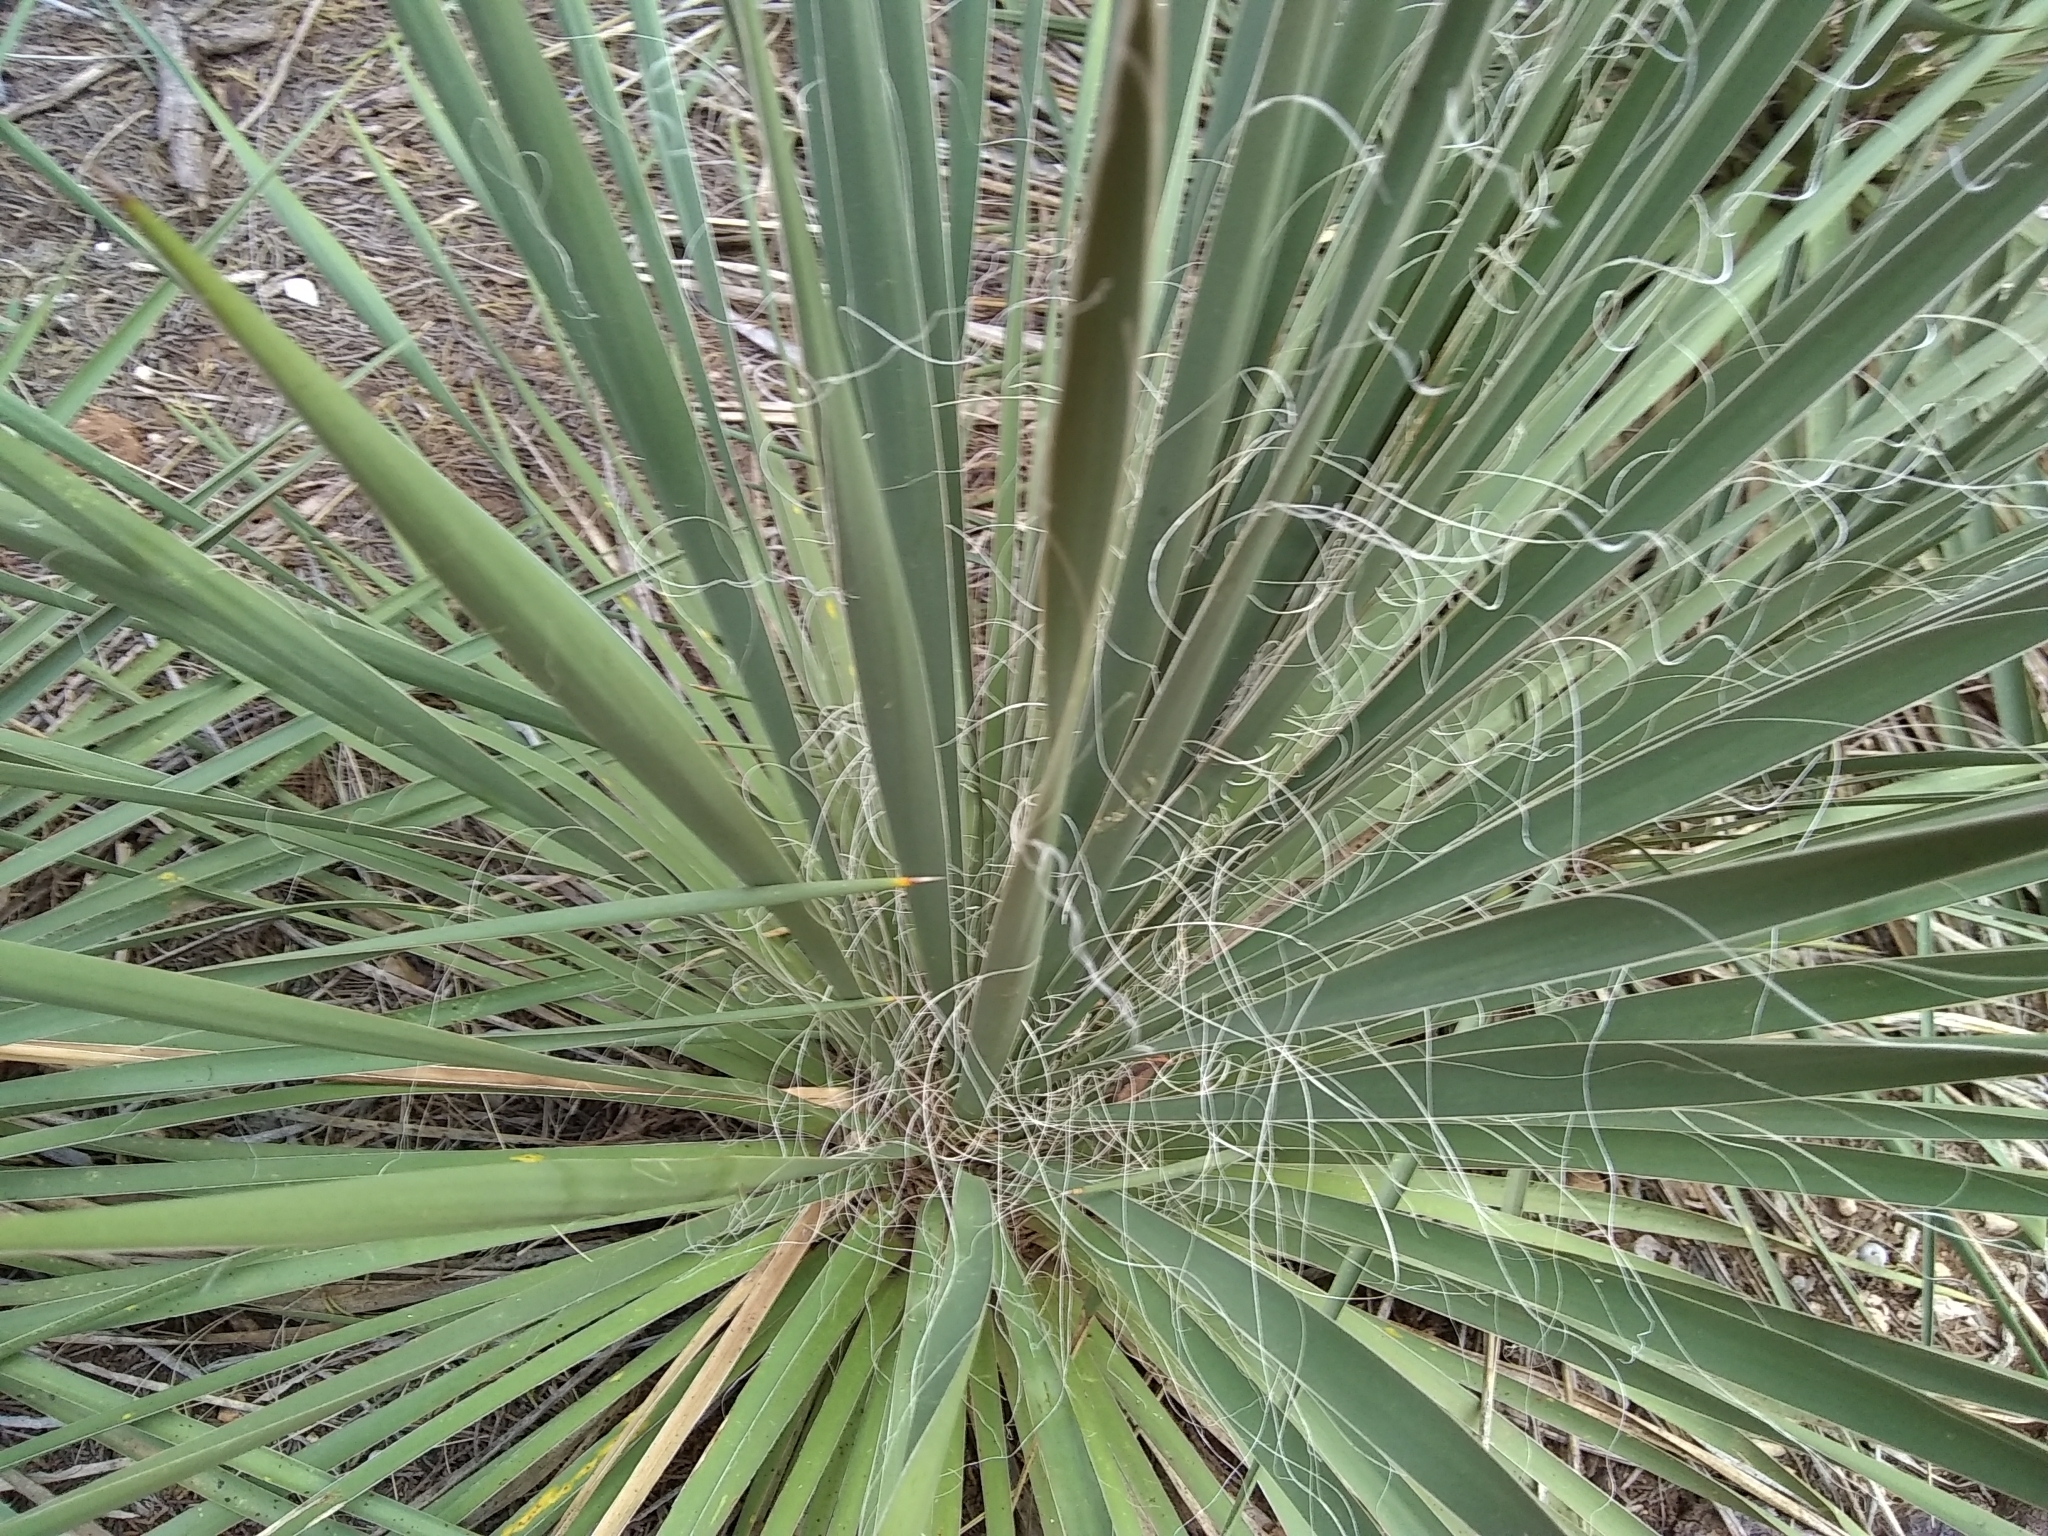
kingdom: Plantae
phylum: Tracheophyta
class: Liliopsida
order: Asparagales
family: Asparagaceae
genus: Yucca
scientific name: Yucca constricta
